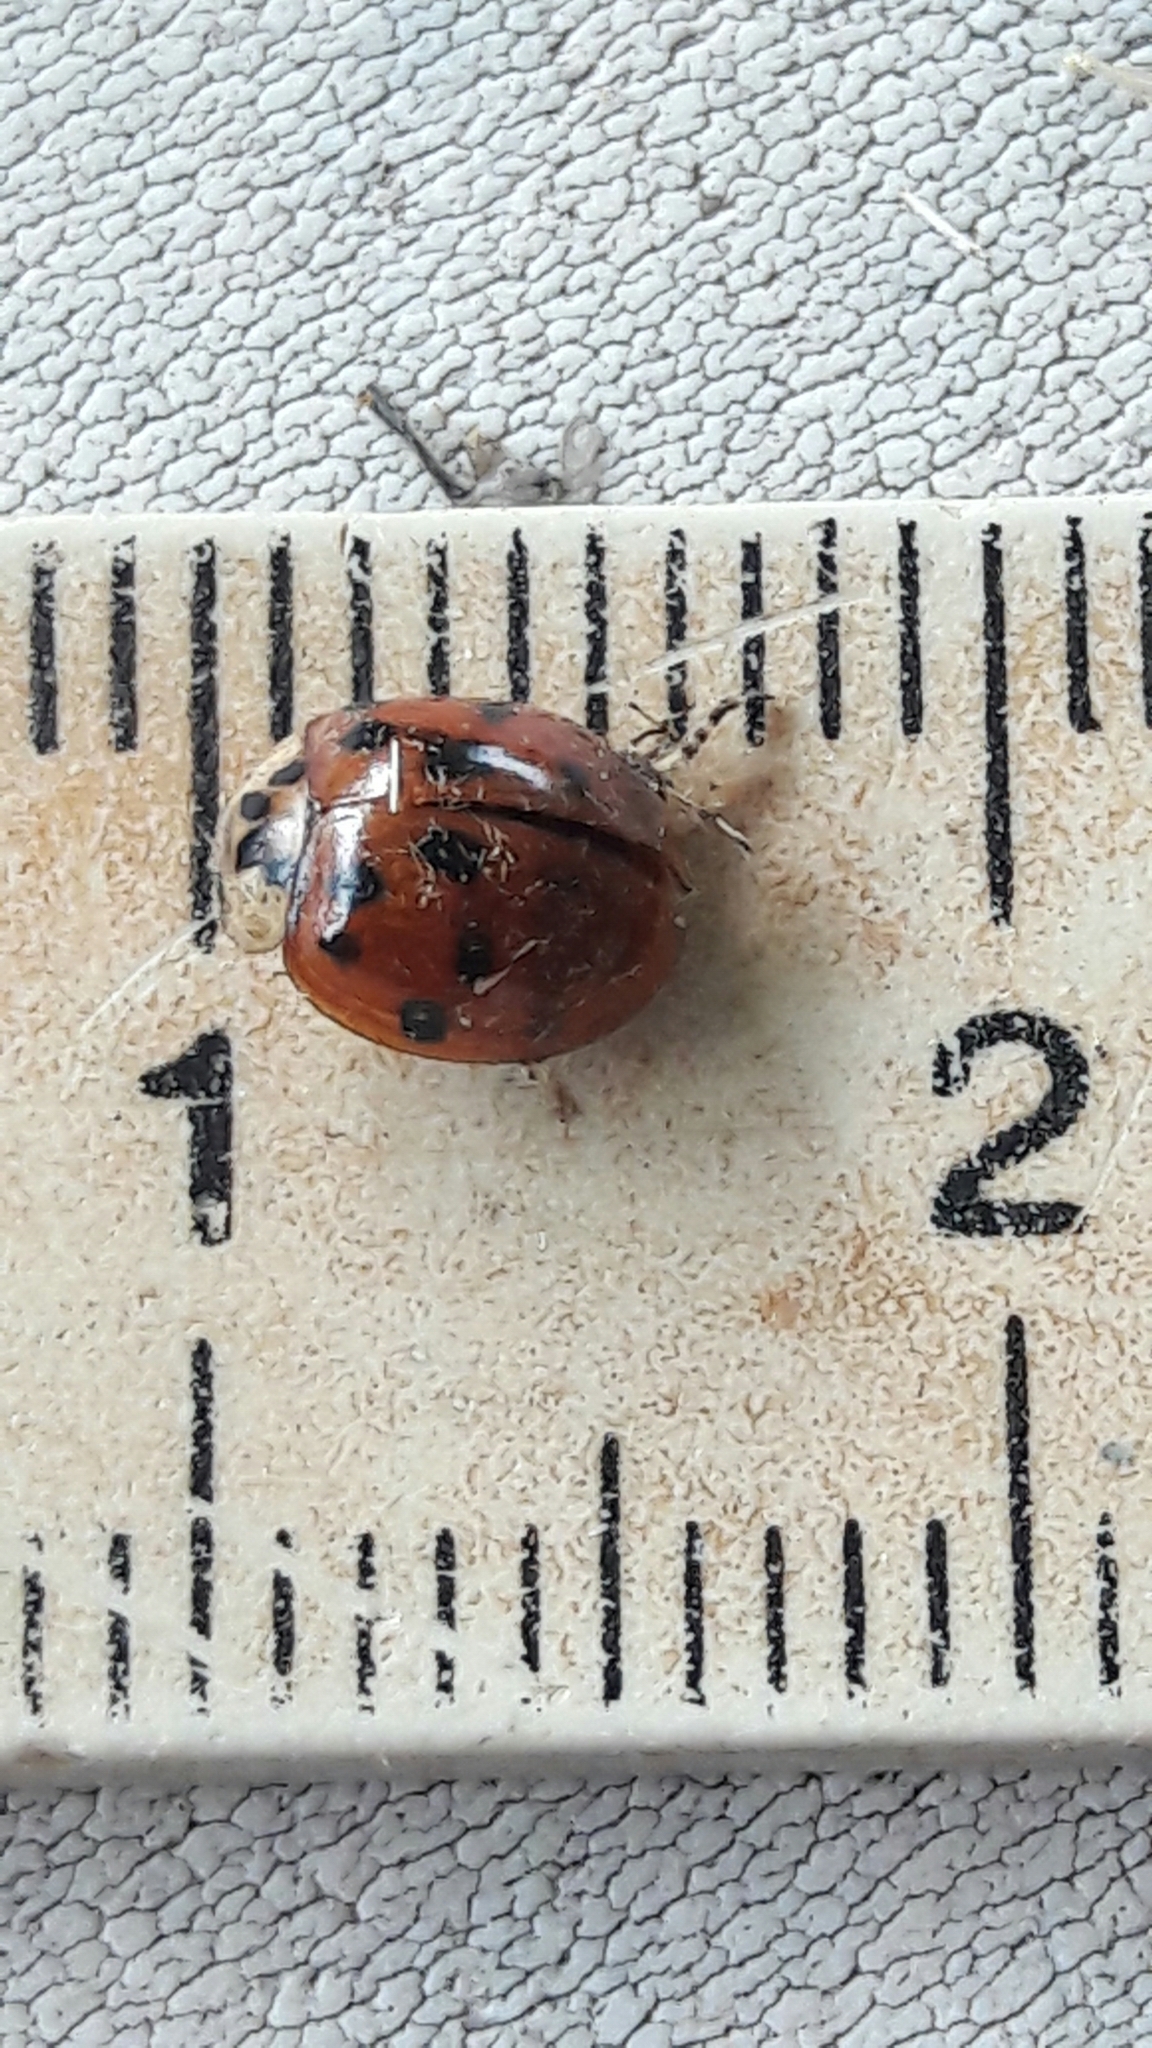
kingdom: Animalia
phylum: Arthropoda
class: Insecta
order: Coleoptera
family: Coccinellidae
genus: Harmonia
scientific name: Harmonia axyridis
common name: Harlequin ladybird
